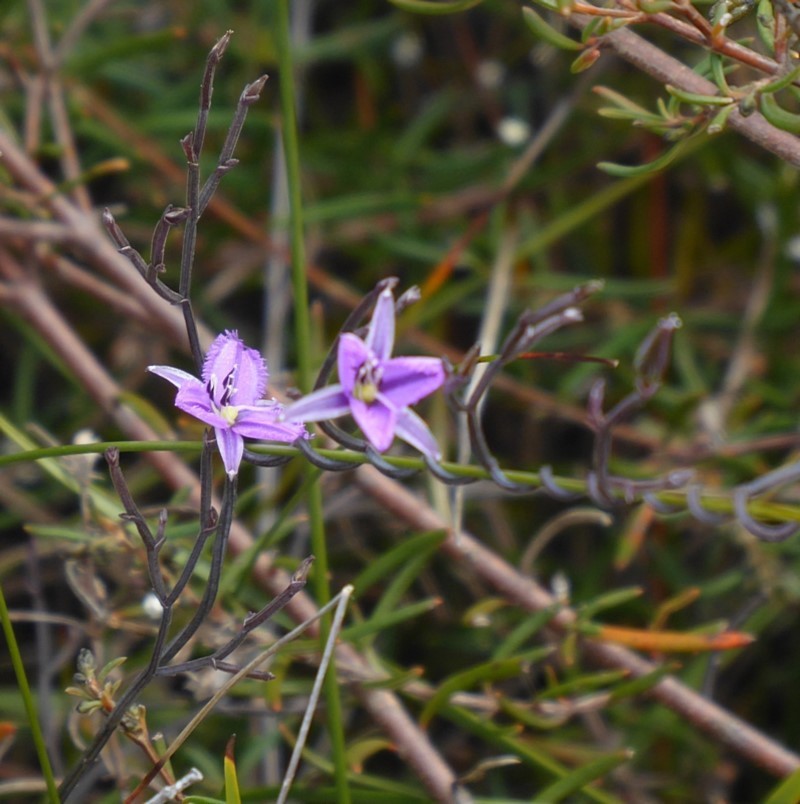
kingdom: Plantae
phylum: Tracheophyta
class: Liliopsida
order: Asparagales
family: Asparagaceae
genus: Thysanotus
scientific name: Thysanotus patersonii
